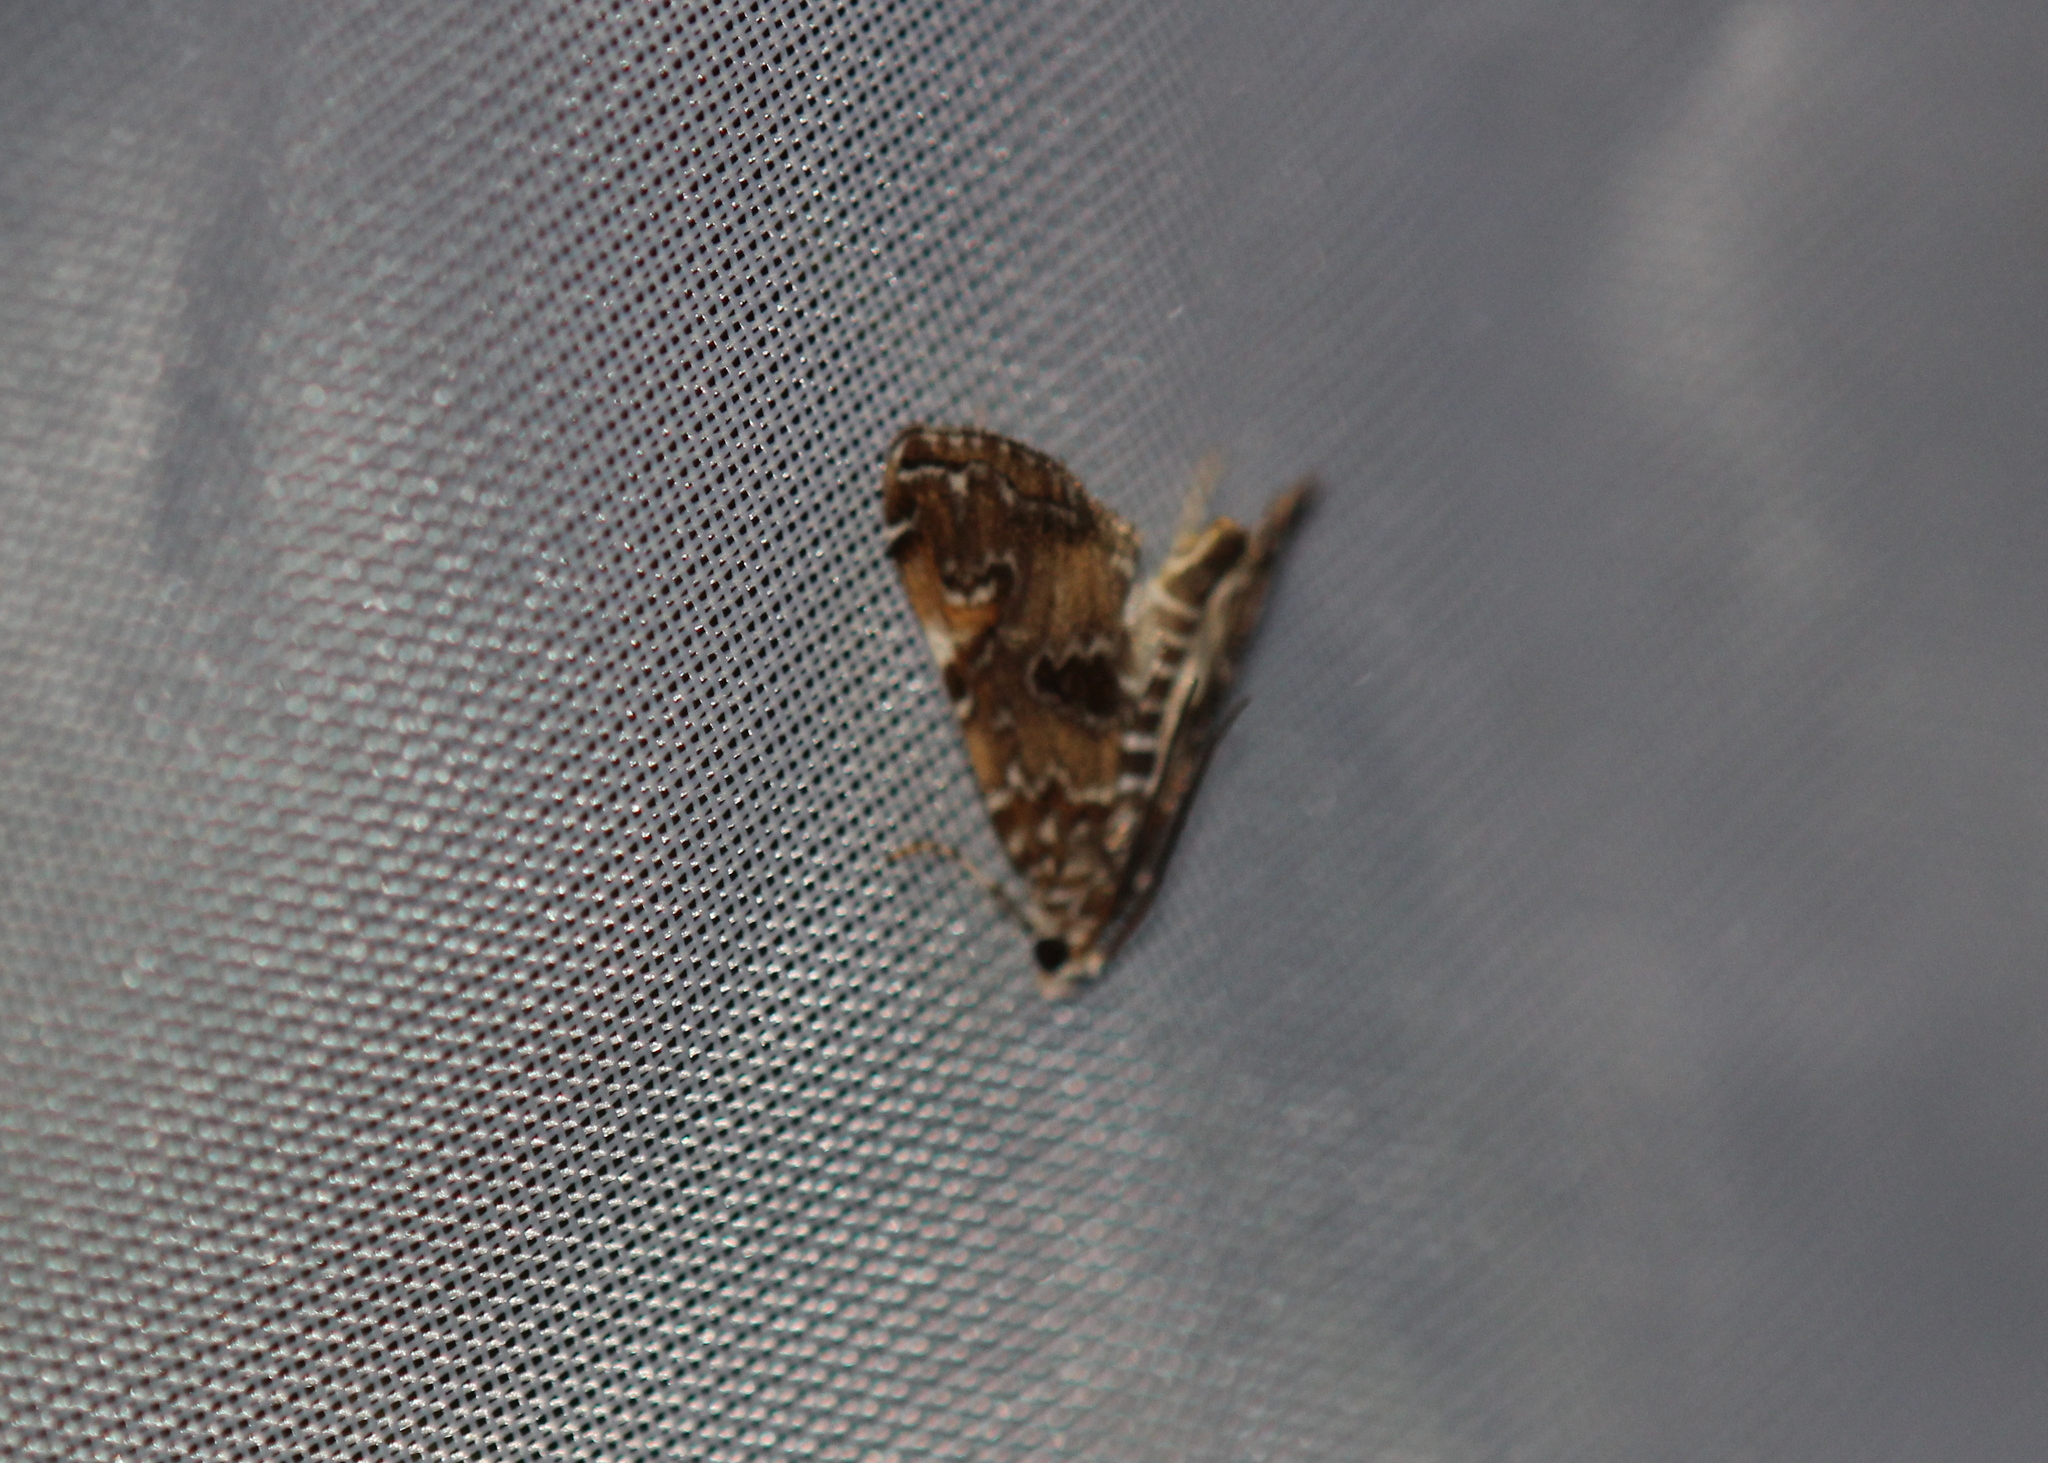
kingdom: Animalia
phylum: Arthropoda
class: Insecta
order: Lepidoptera
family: Crambidae
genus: Elophila
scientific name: Elophila gyralis
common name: Waterlily borer moth
